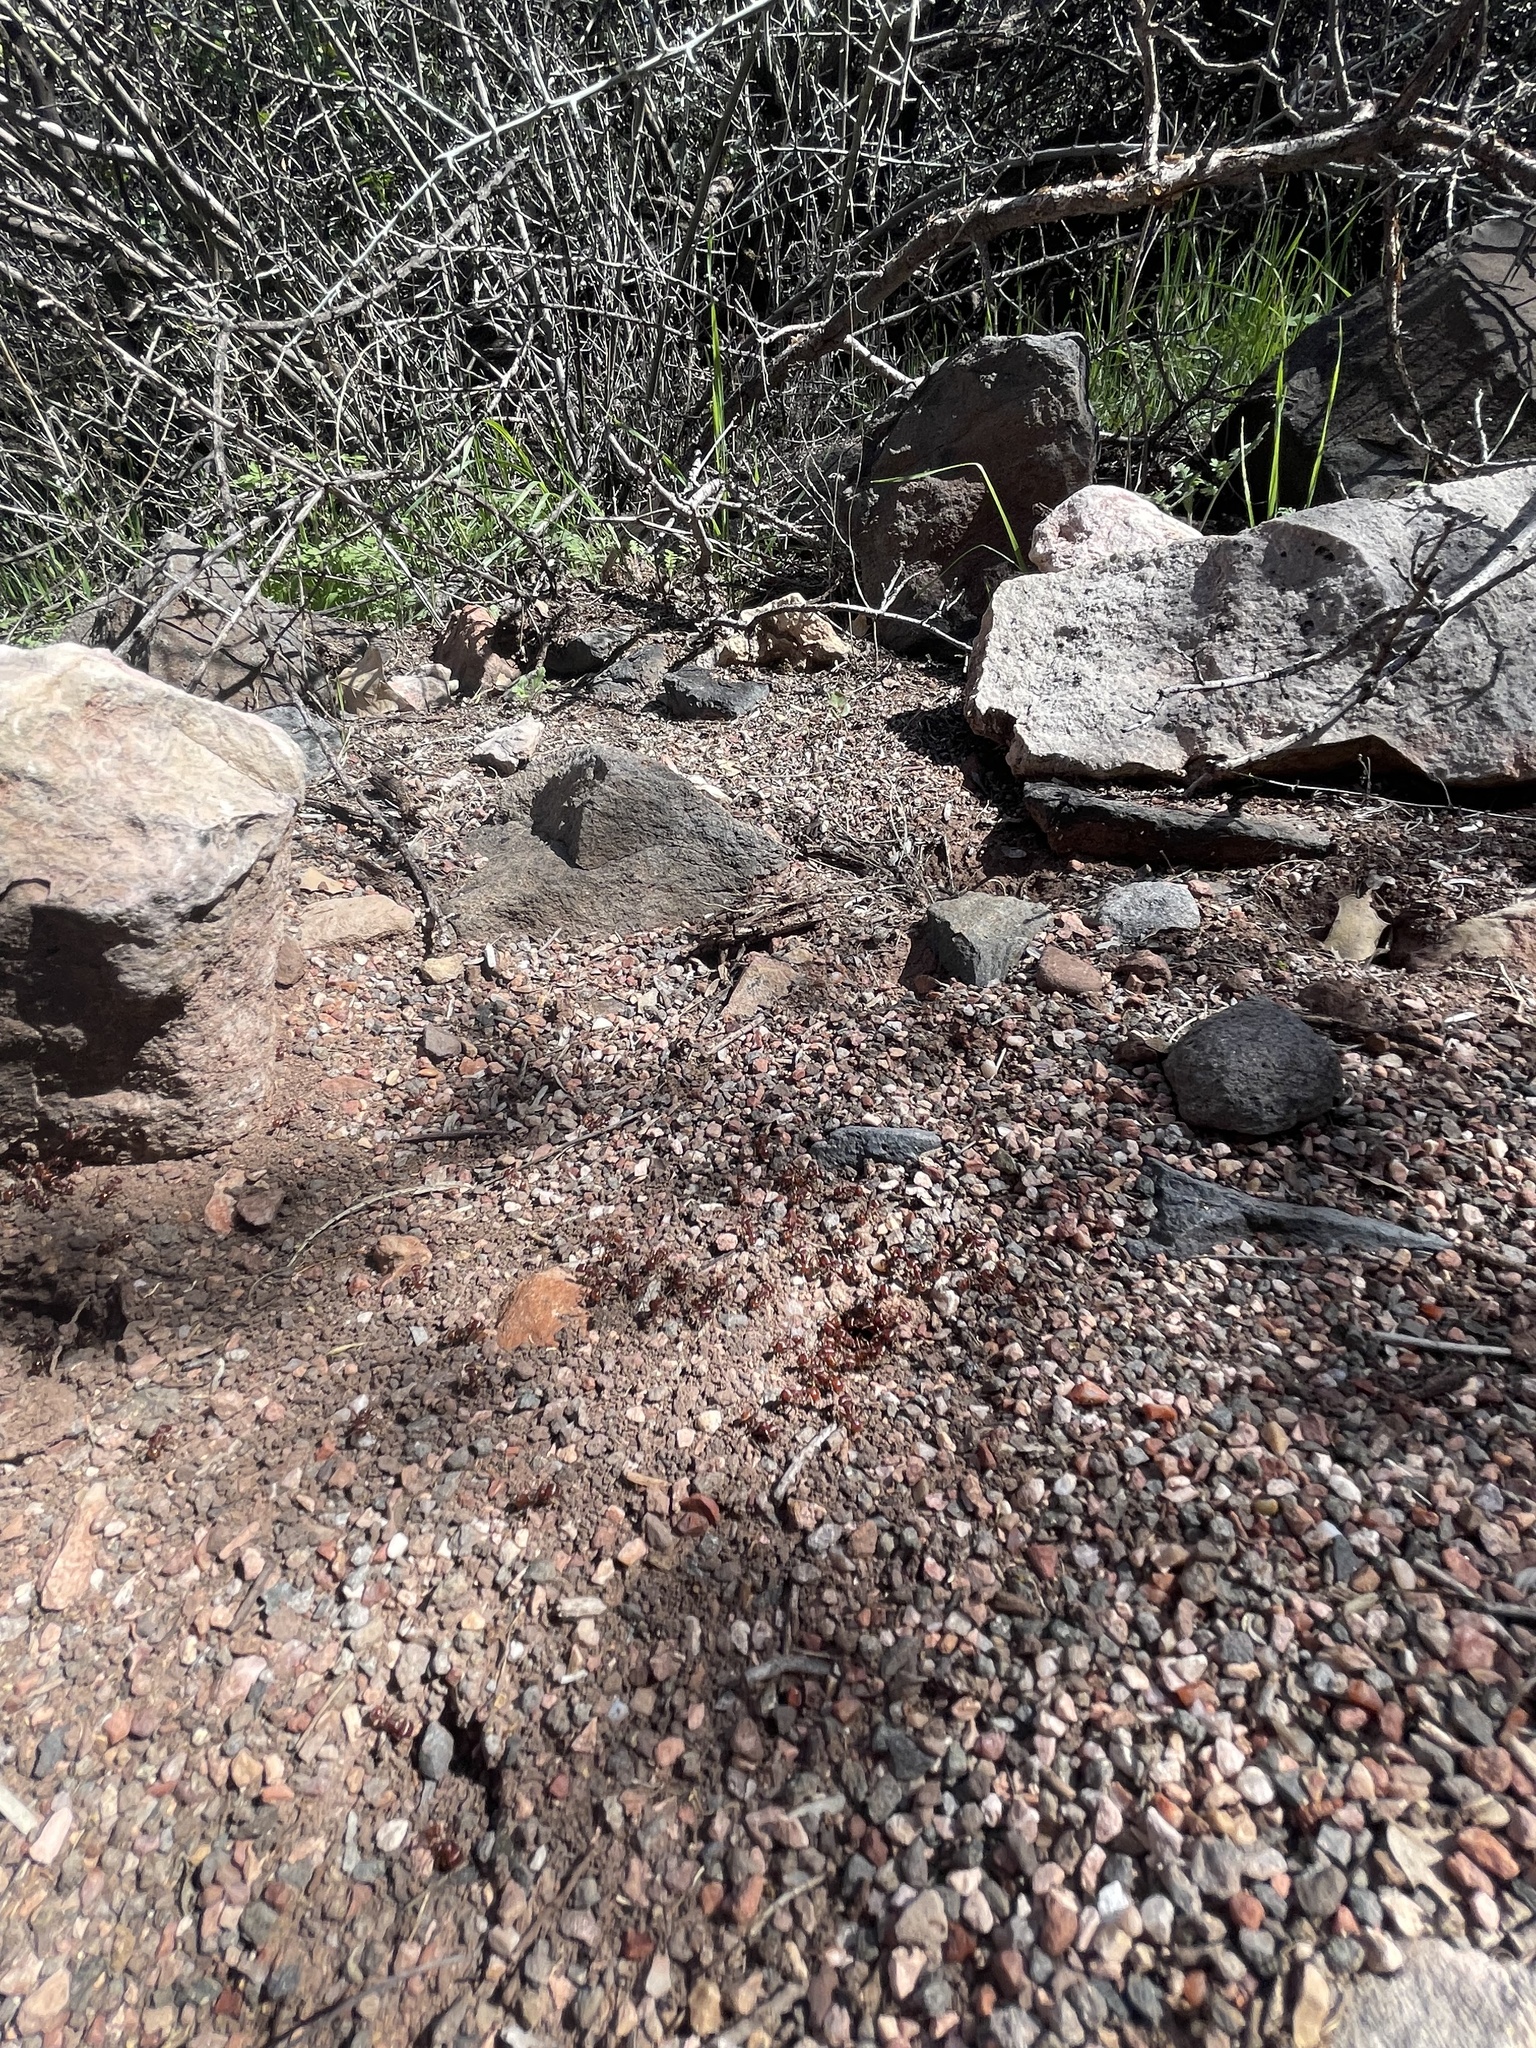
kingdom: Animalia
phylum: Arthropoda
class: Insecta
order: Hymenoptera
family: Formicidae
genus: Pogonomyrmex
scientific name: Pogonomyrmex barbatus
